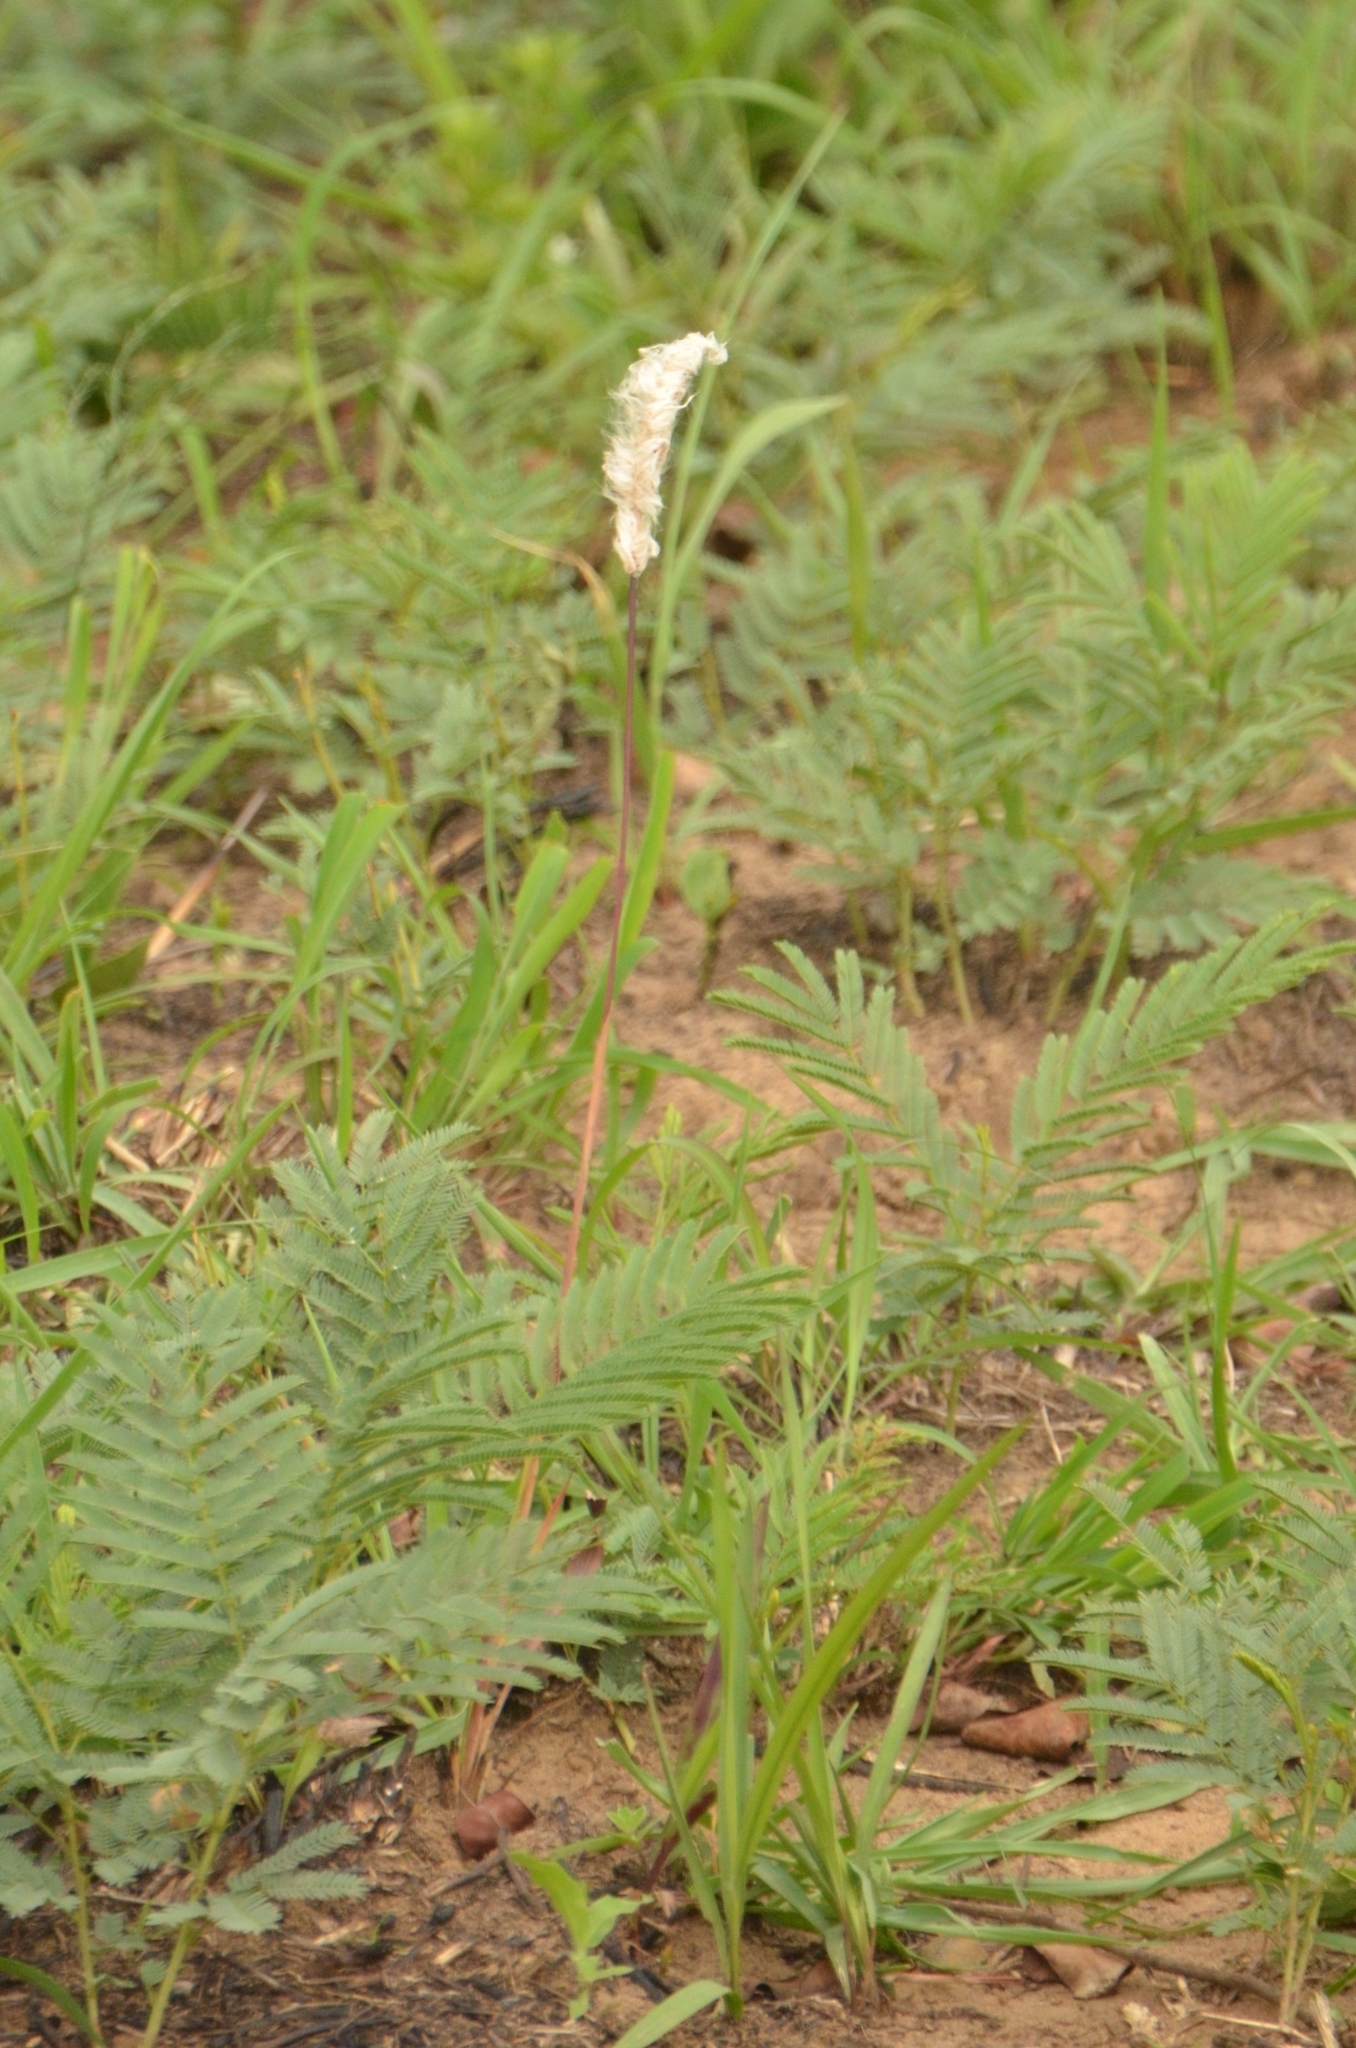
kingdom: Plantae
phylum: Tracheophyta
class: Liliopsida
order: Poales
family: Poaceae
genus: Imperata
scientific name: Imperata cylindrica
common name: Cogongrass
